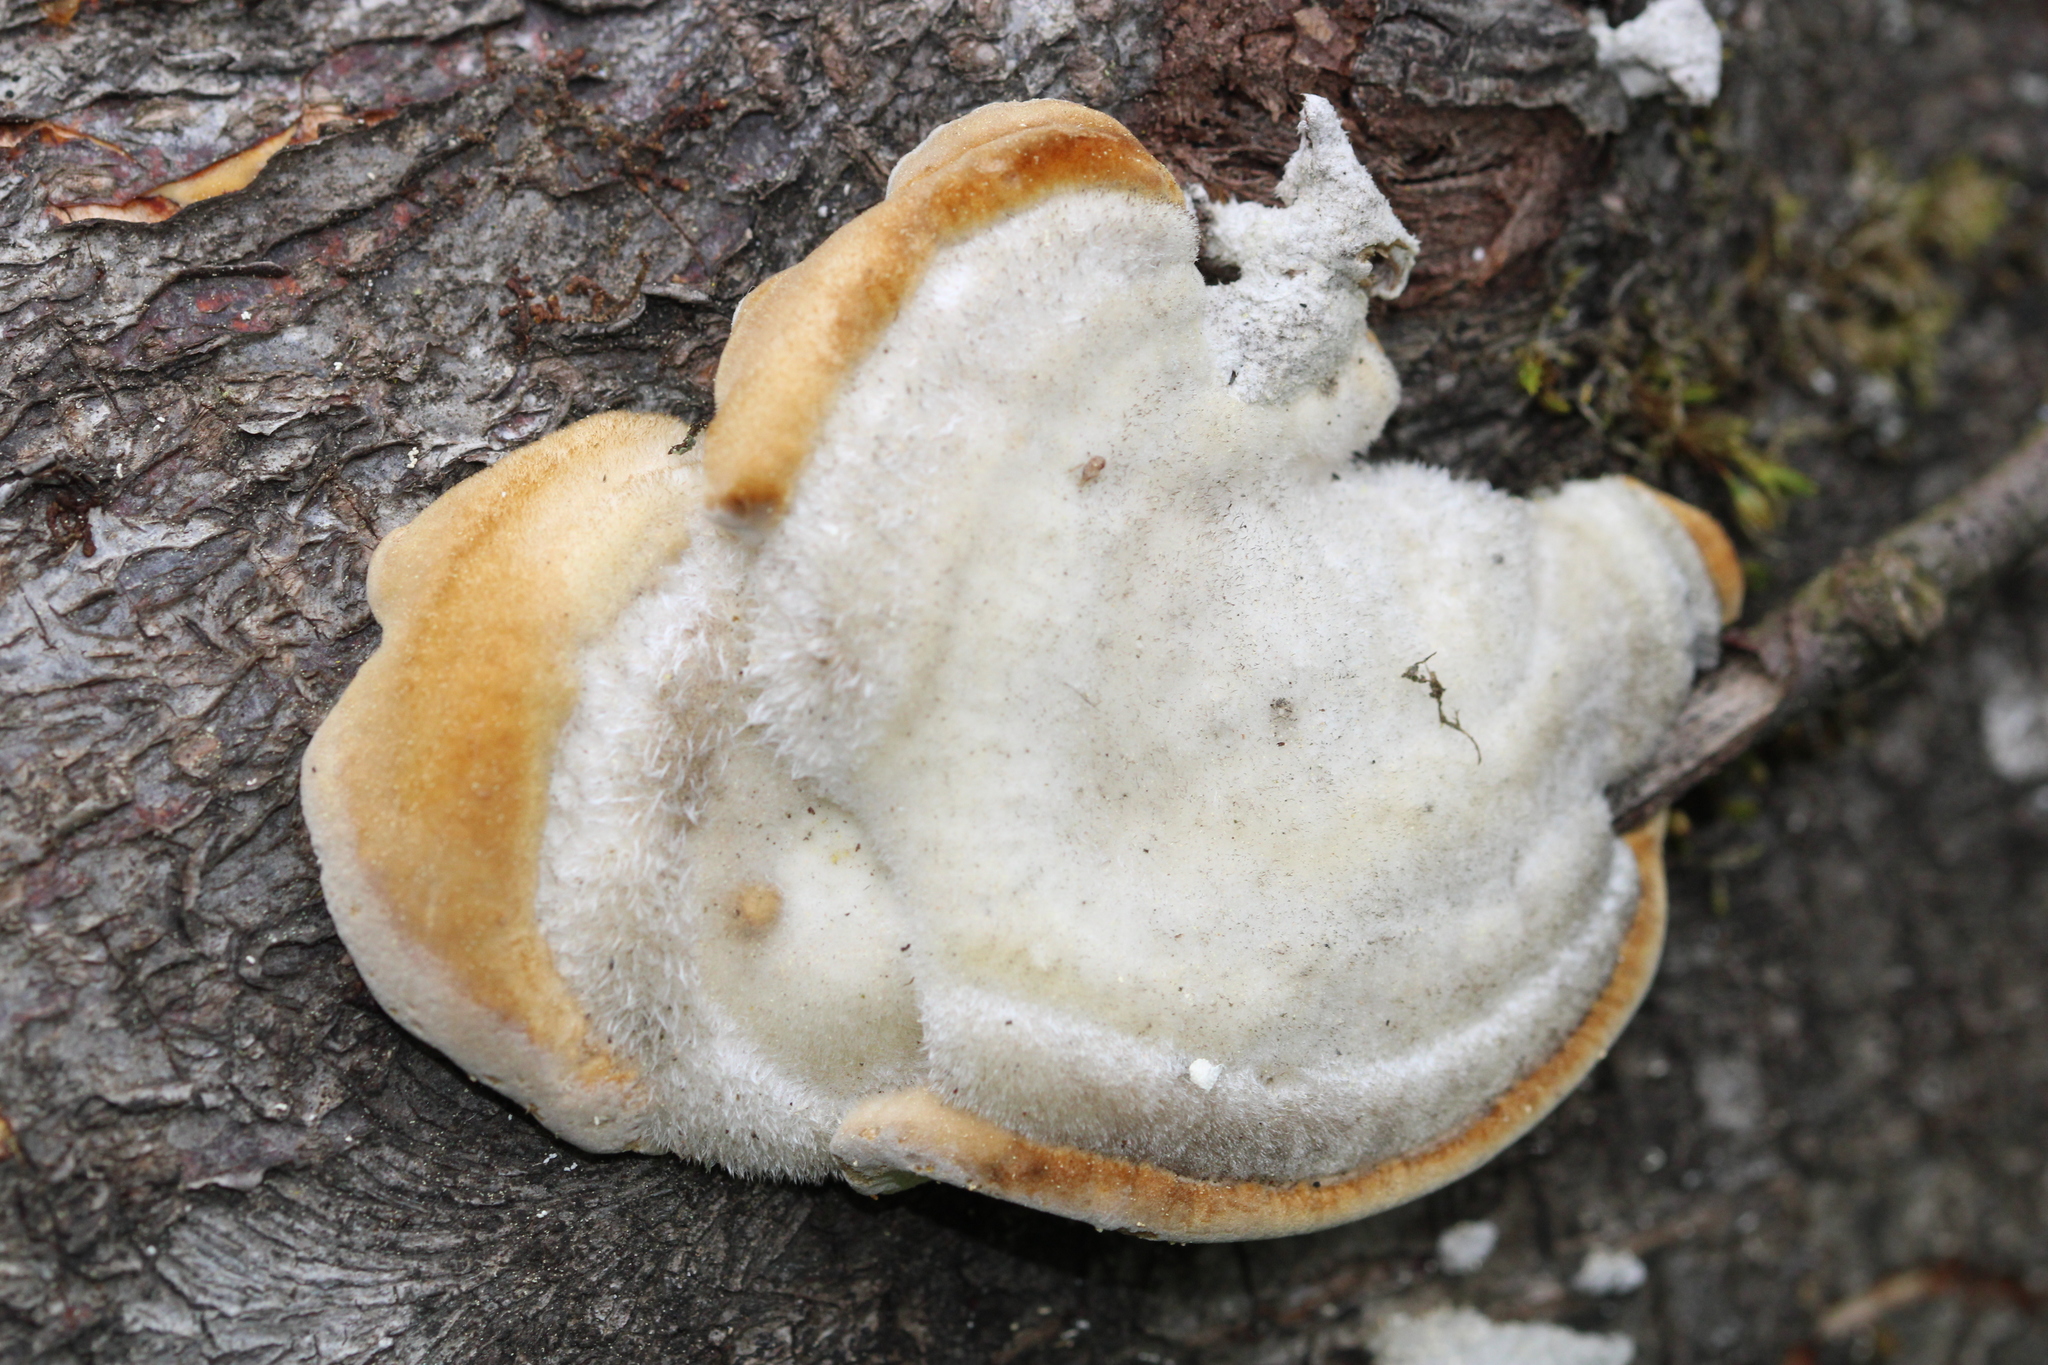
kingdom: Fungi
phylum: Basidiomycota
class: Agaricomycetes
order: Polyporales
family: Polyporaceae
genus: Trametes
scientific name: Trametes hirsuta
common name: Hairy bracket
